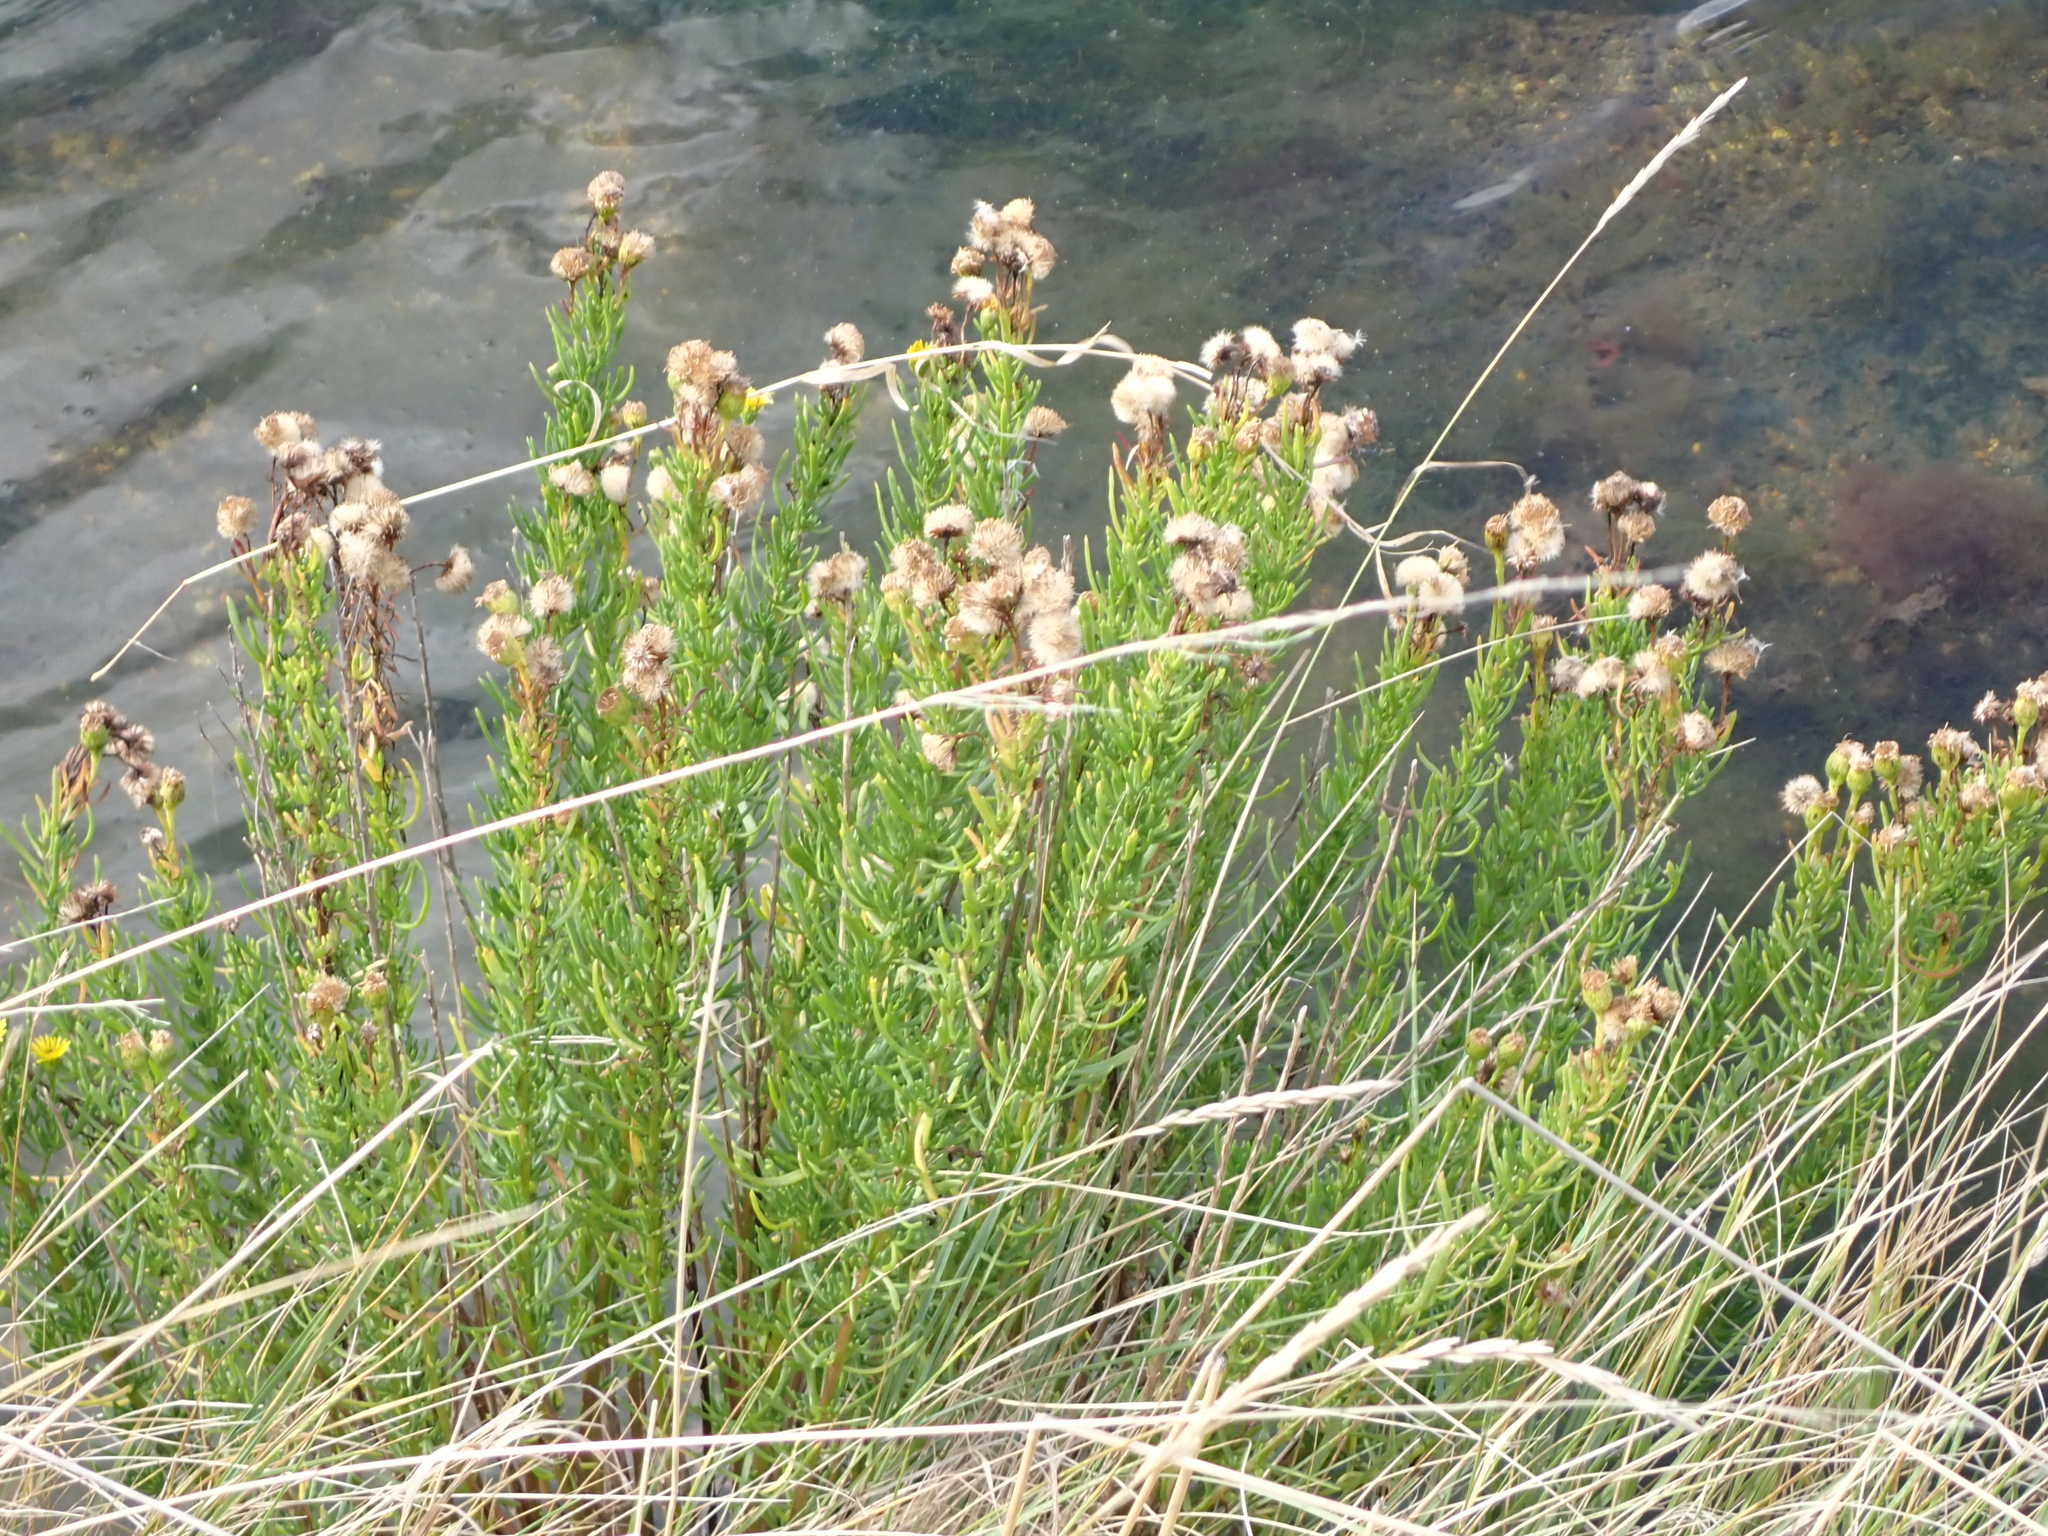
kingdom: Plantae
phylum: Tracheophyta
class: Magnoliopsida
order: Asterales
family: Asteraceae
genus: Limbarda
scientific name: Limbarda crithmoides
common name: Golden samphire
